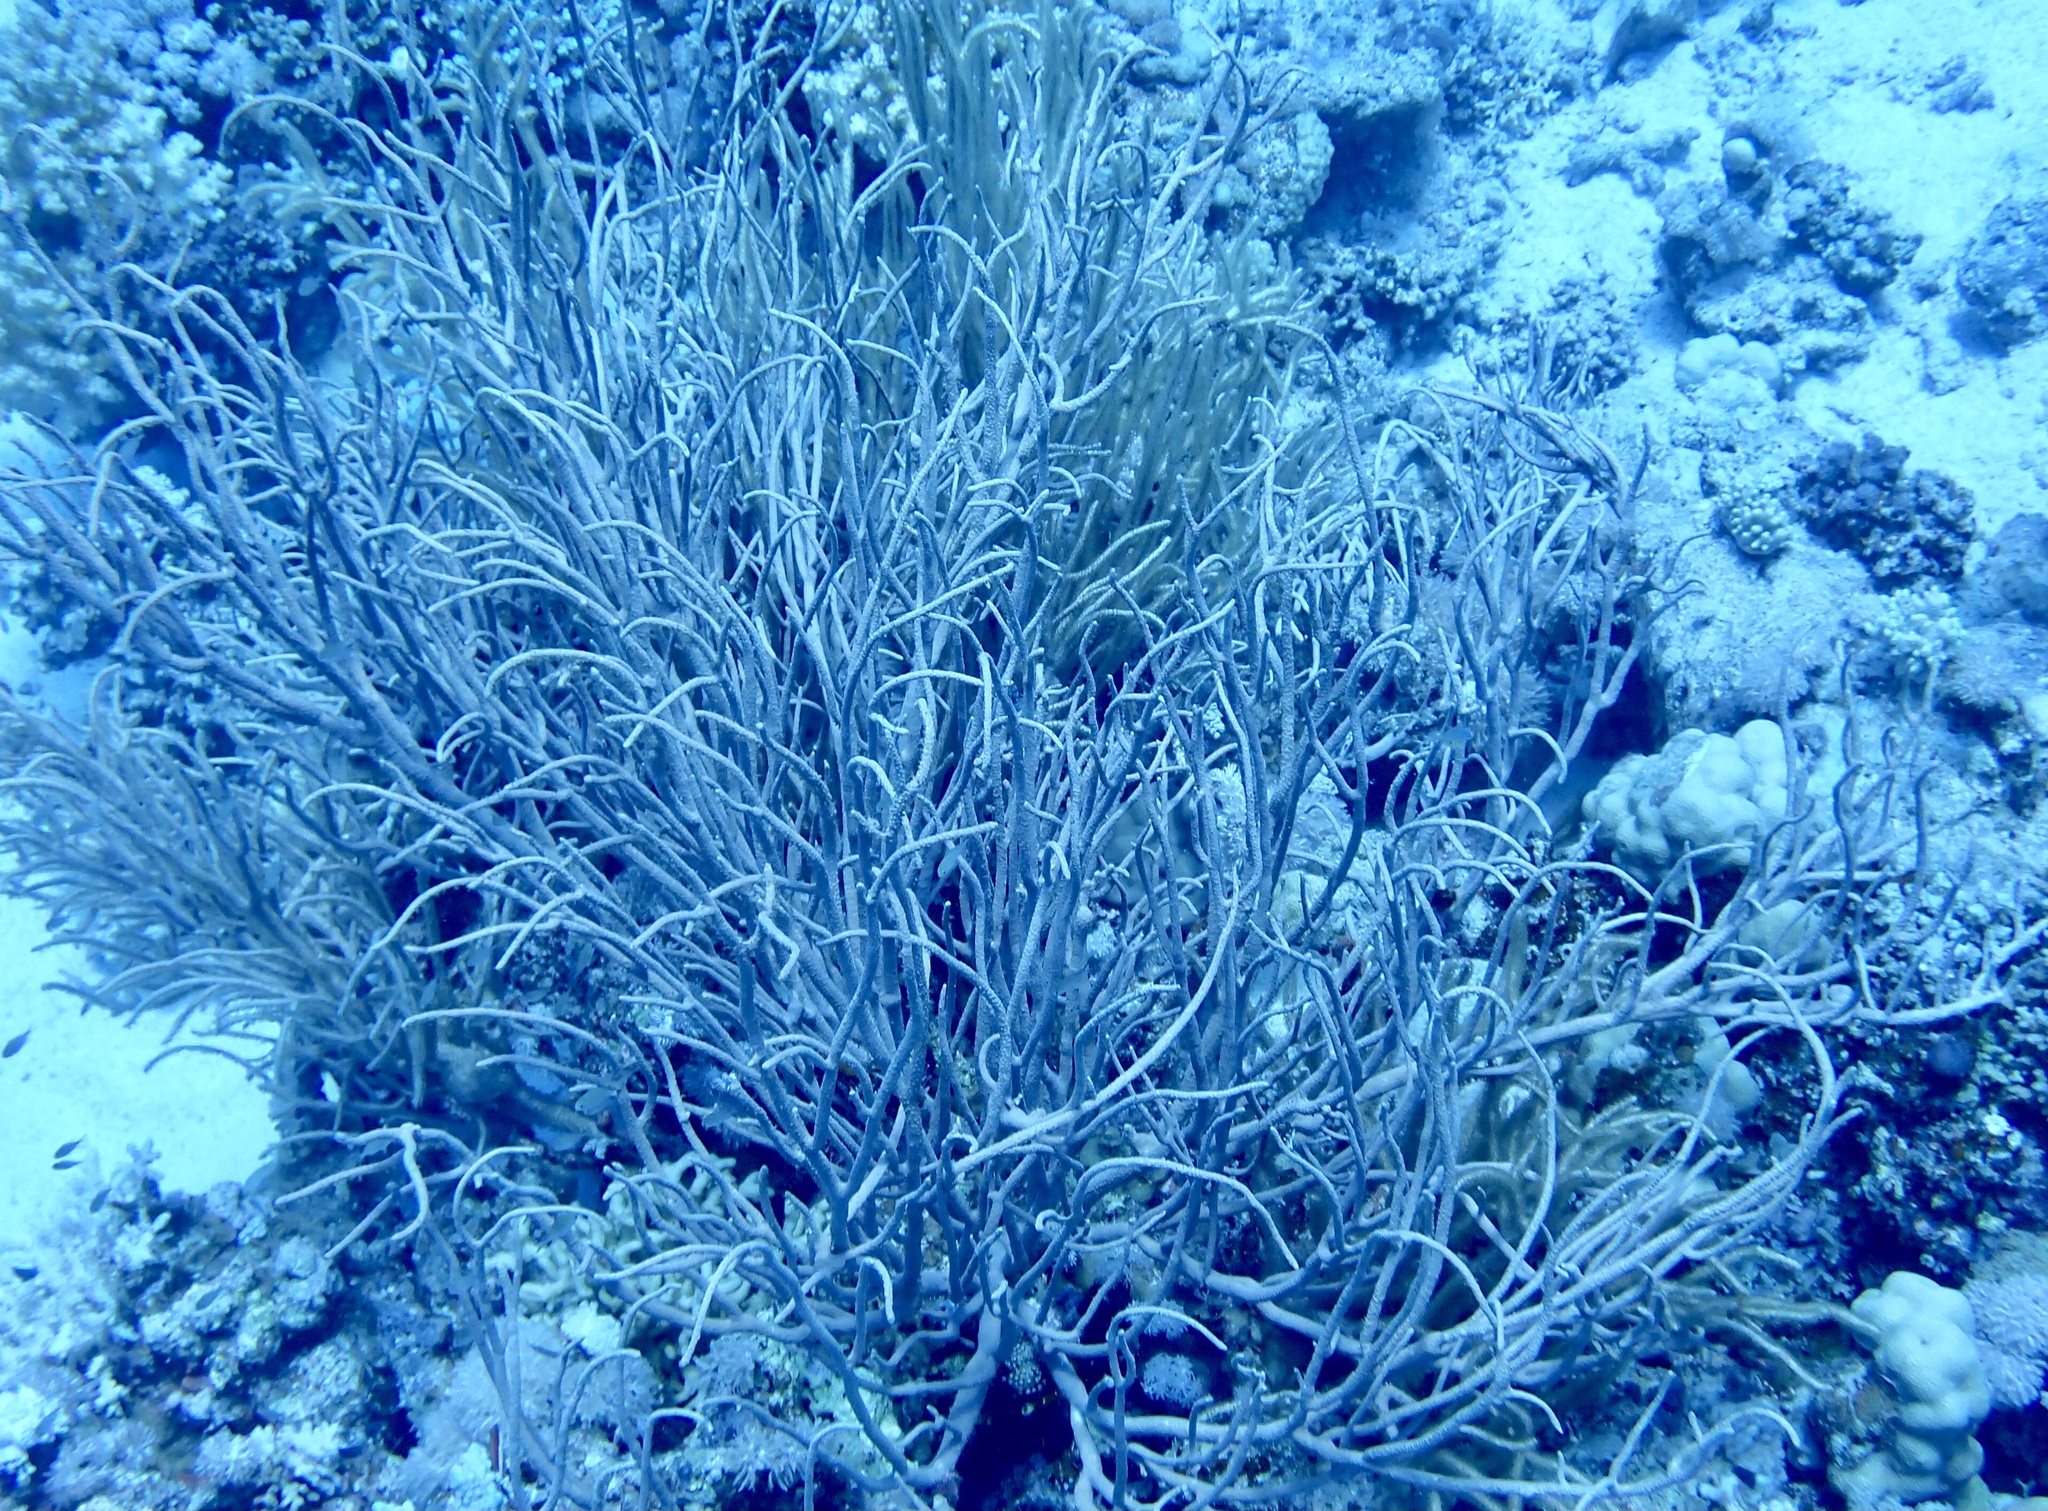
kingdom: Animalia
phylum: Cnidaria
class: Anthozoa
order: Malacalcyonacea
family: Isididae
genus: Rumphella
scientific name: Rumphella torta
